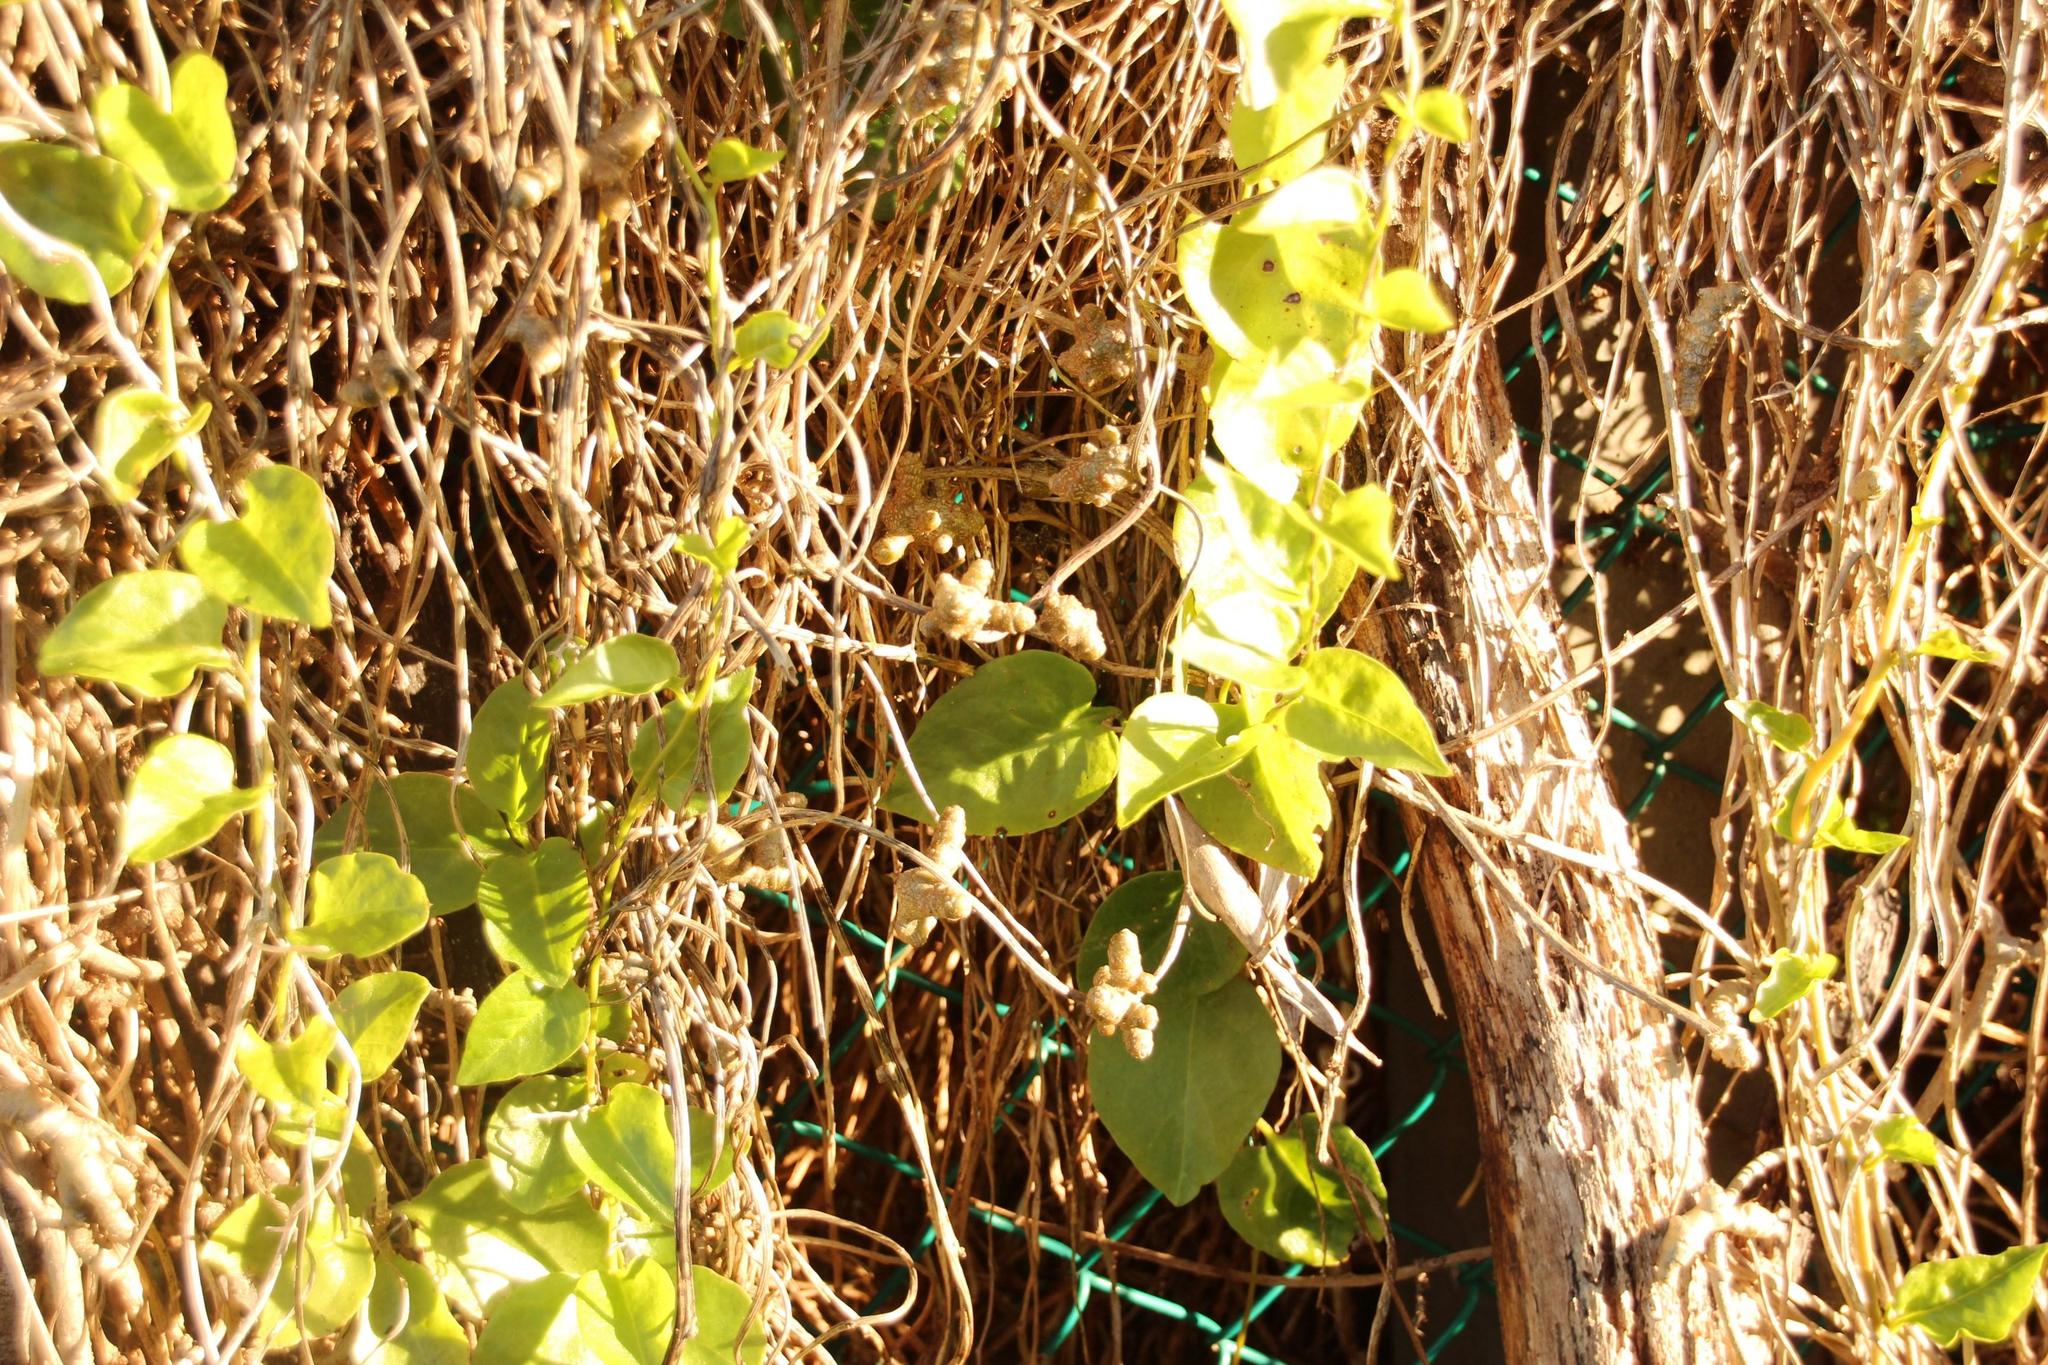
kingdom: Plantae
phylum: Tracheophyta
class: Magnoliopsida
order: Caryophyllales
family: Basellaceae
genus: Anredera
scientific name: Anredera cordifolia
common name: Heartleaf madeiravine
